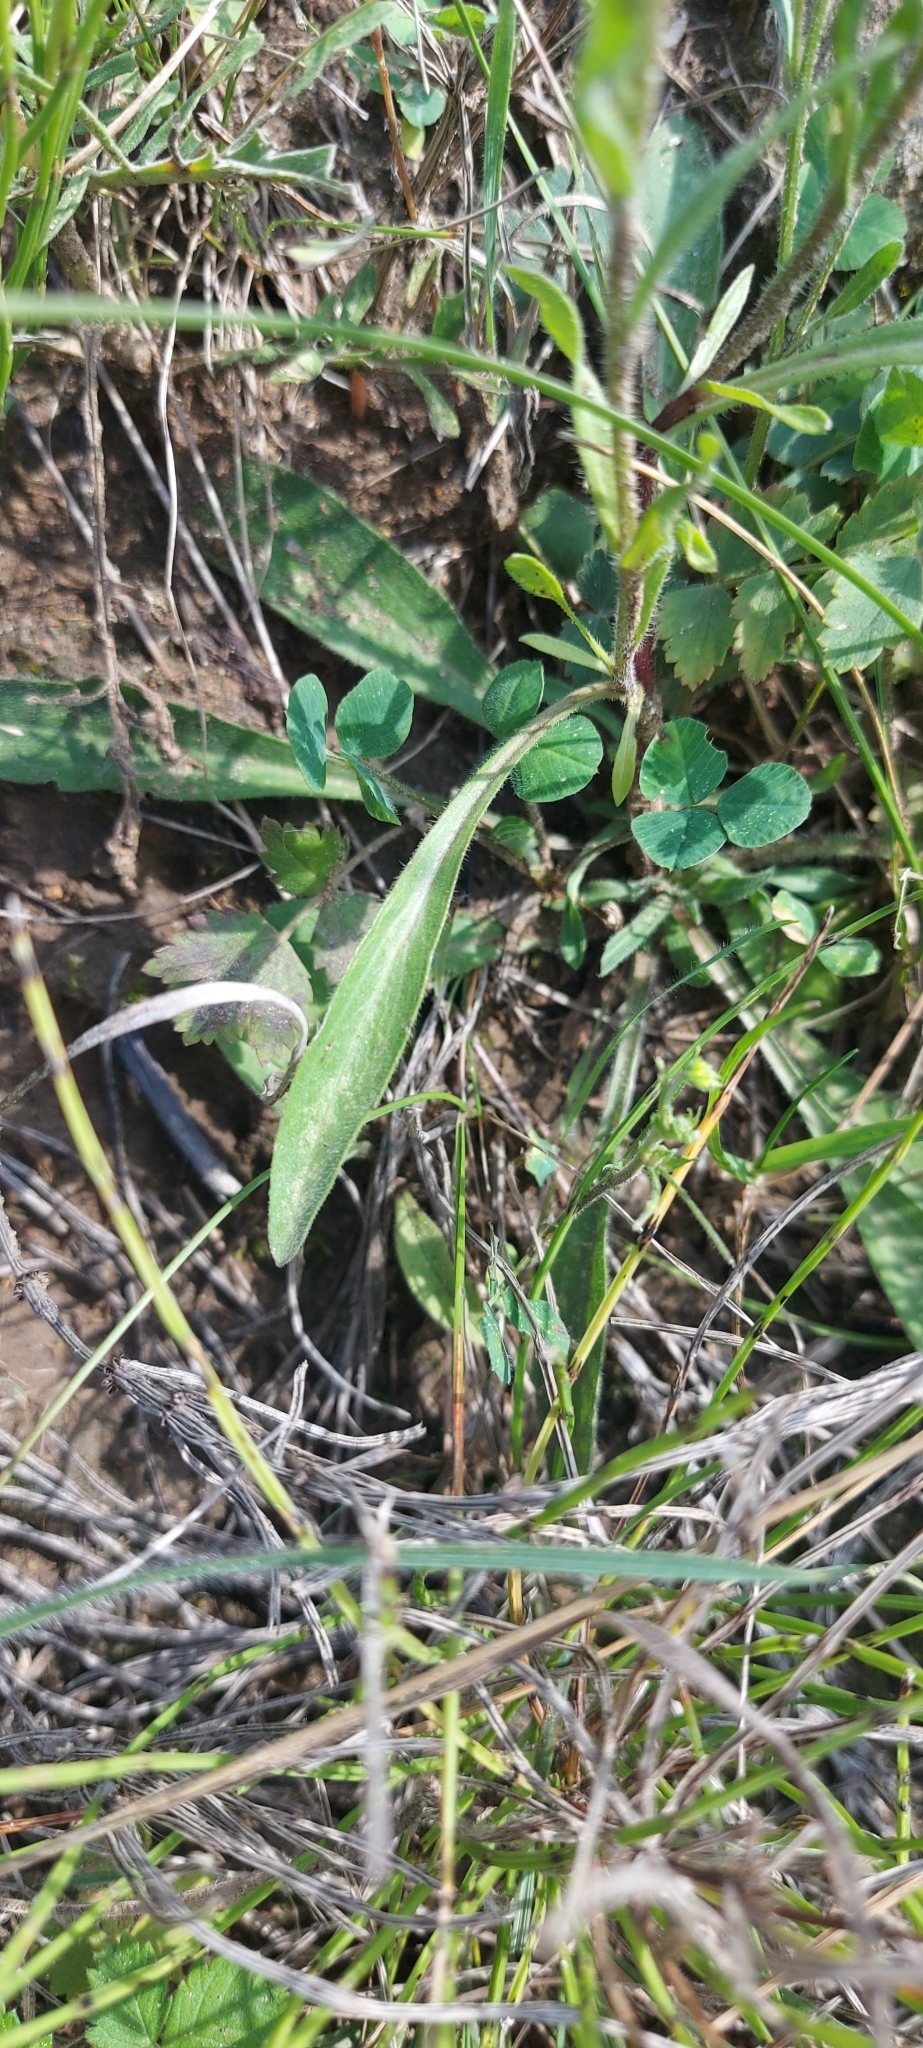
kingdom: Plantae
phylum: Tracheophyta
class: Magnoliopsida
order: Asterales
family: Asteraceae
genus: Erigeron
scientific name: Erigeron acris
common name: Blue fleabane
